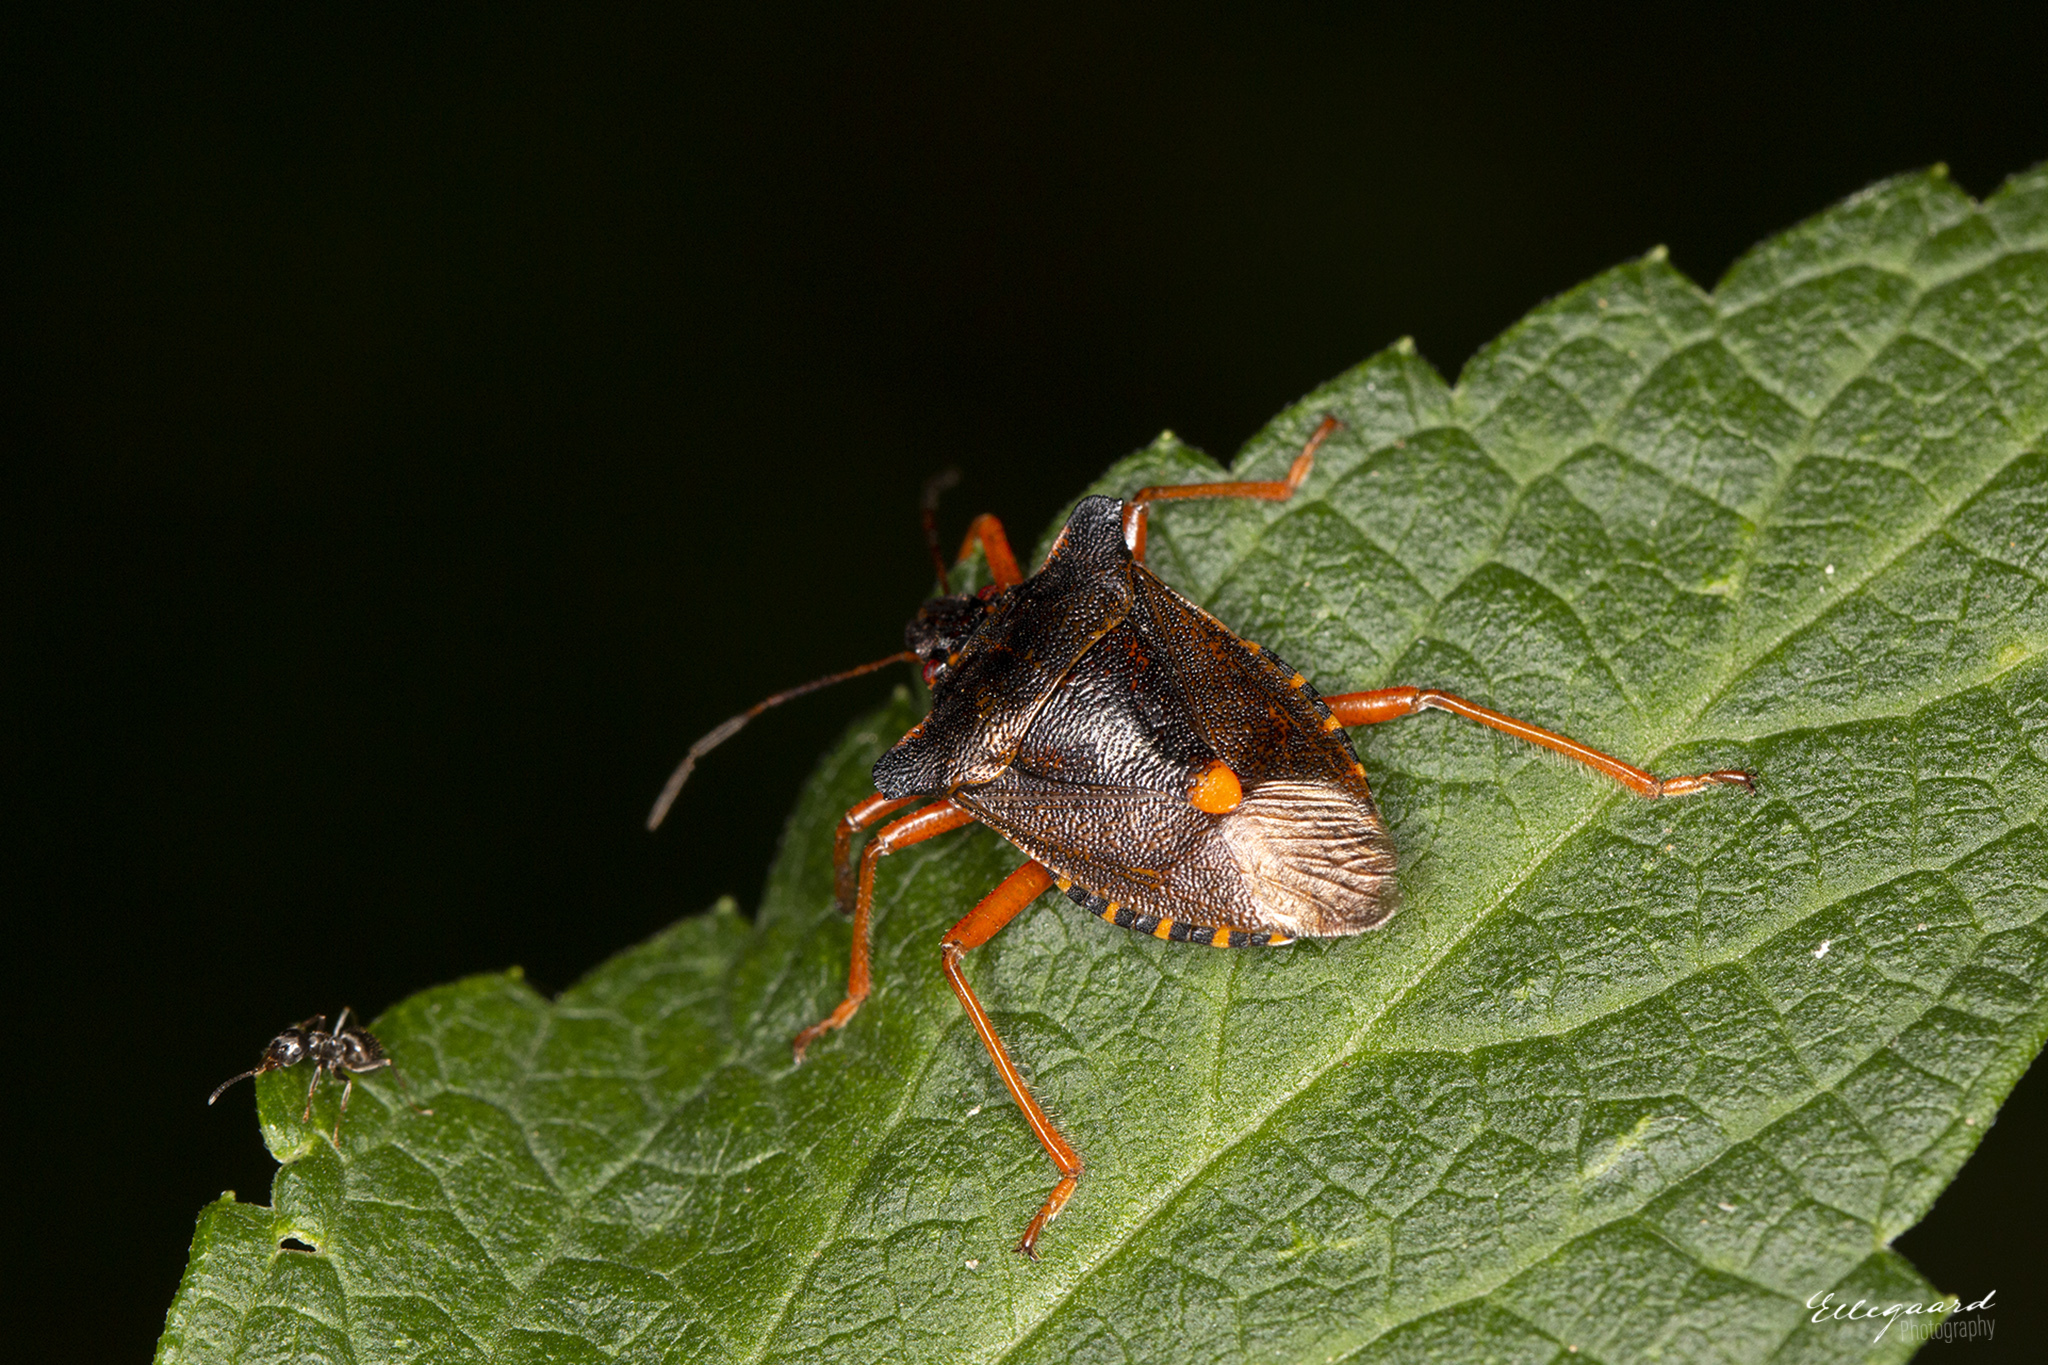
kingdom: Animalia
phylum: Arthropoda
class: Insecta
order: Hemiptera
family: Pentatomidae
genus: Pentatoma
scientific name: Pentatoma rufipes
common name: Forest bug
